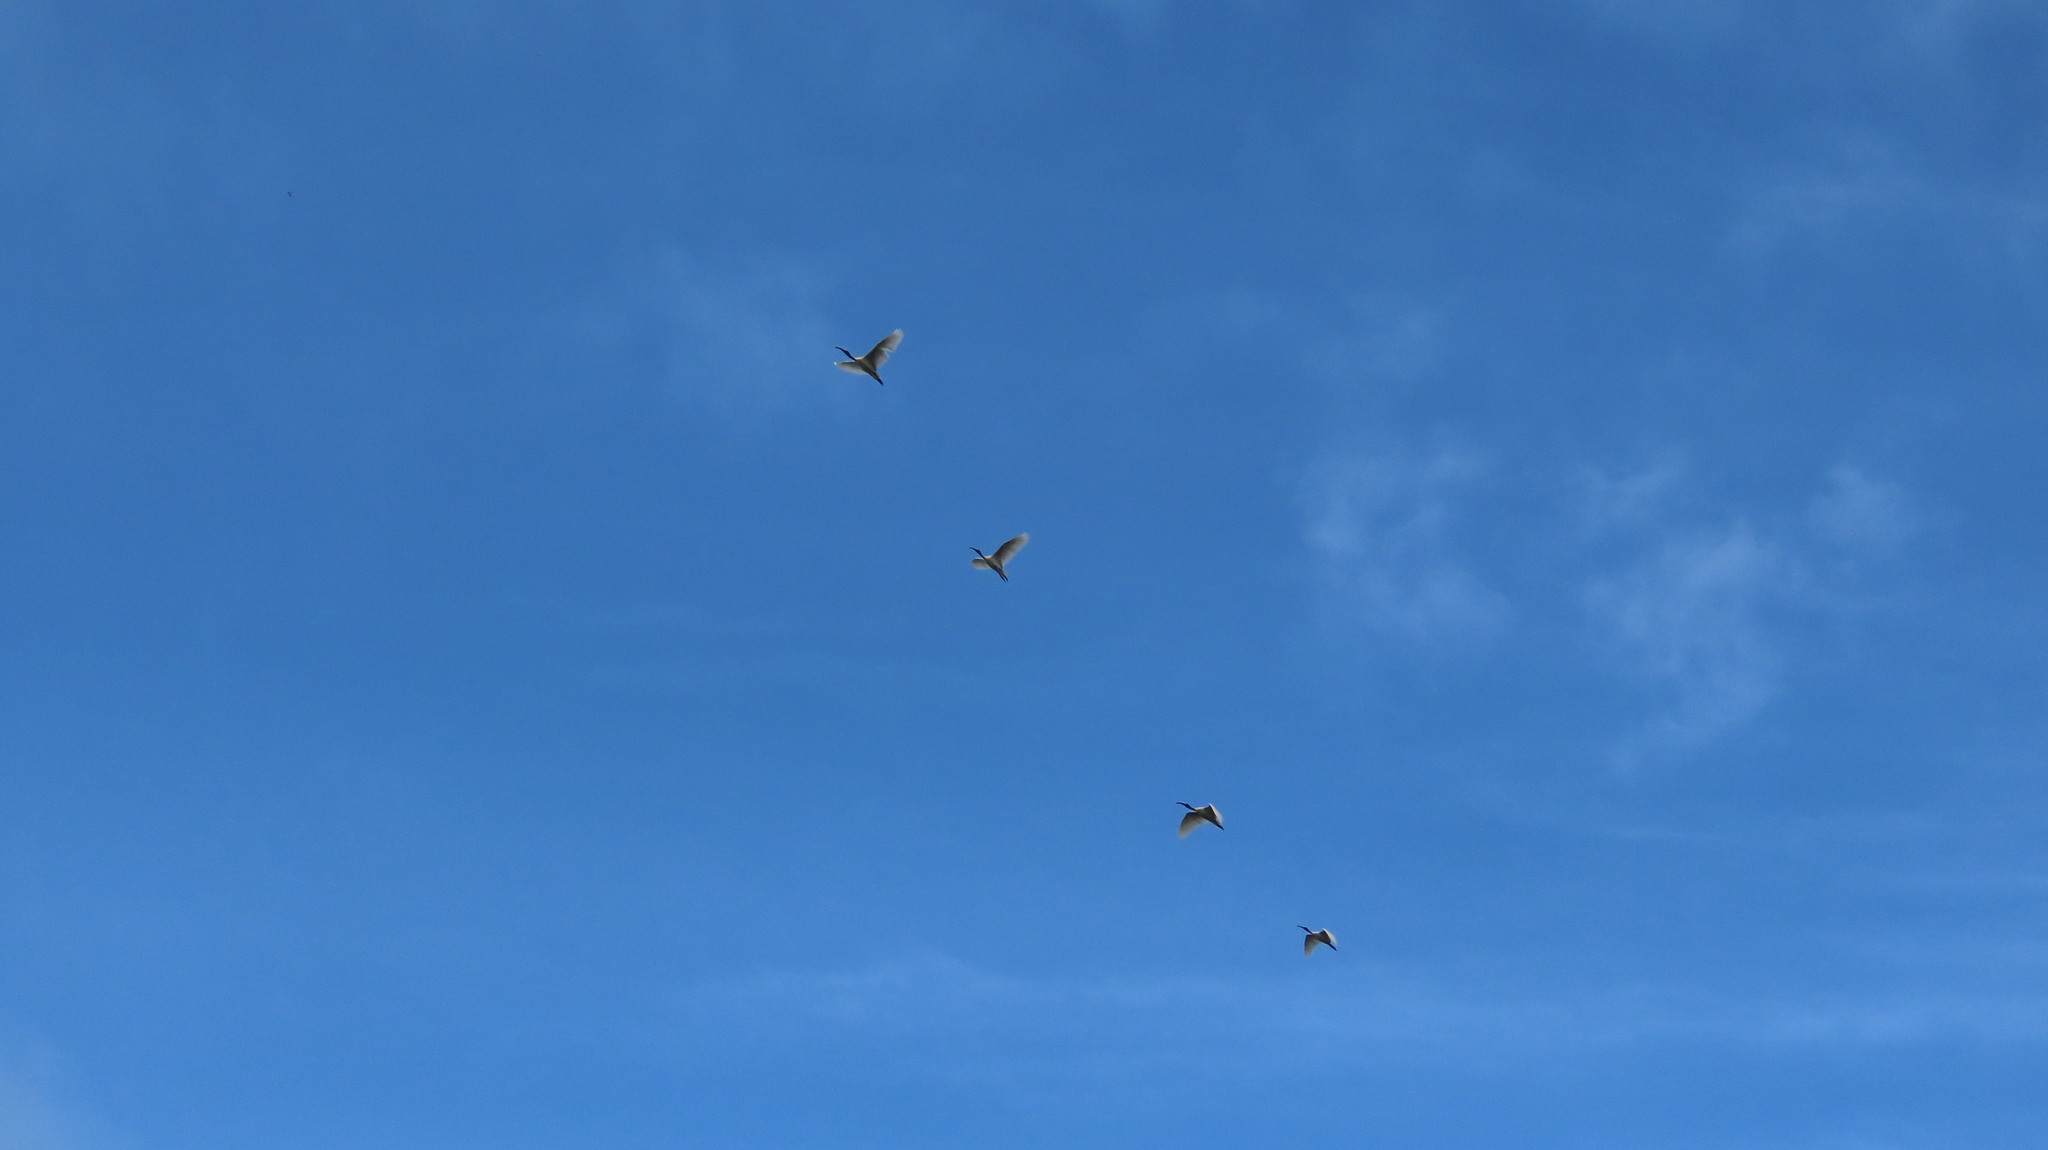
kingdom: Animalia
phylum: Chordata
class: Aves
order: Pelecaniformes
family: Threskiornithidae
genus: Threskiornis
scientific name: Threskiornis melanocephalus
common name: Black-headed ibis
